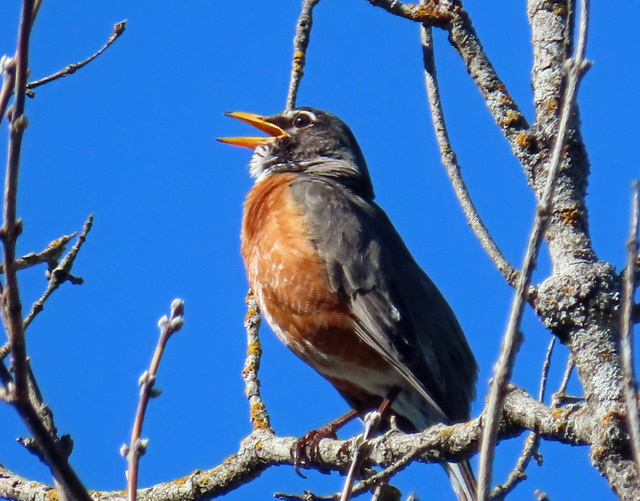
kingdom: Animalia
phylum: Chordata
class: Aves
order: Passeriformes
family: Turdidae
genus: Turdus
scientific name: Turdus migratorius
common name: American robin
